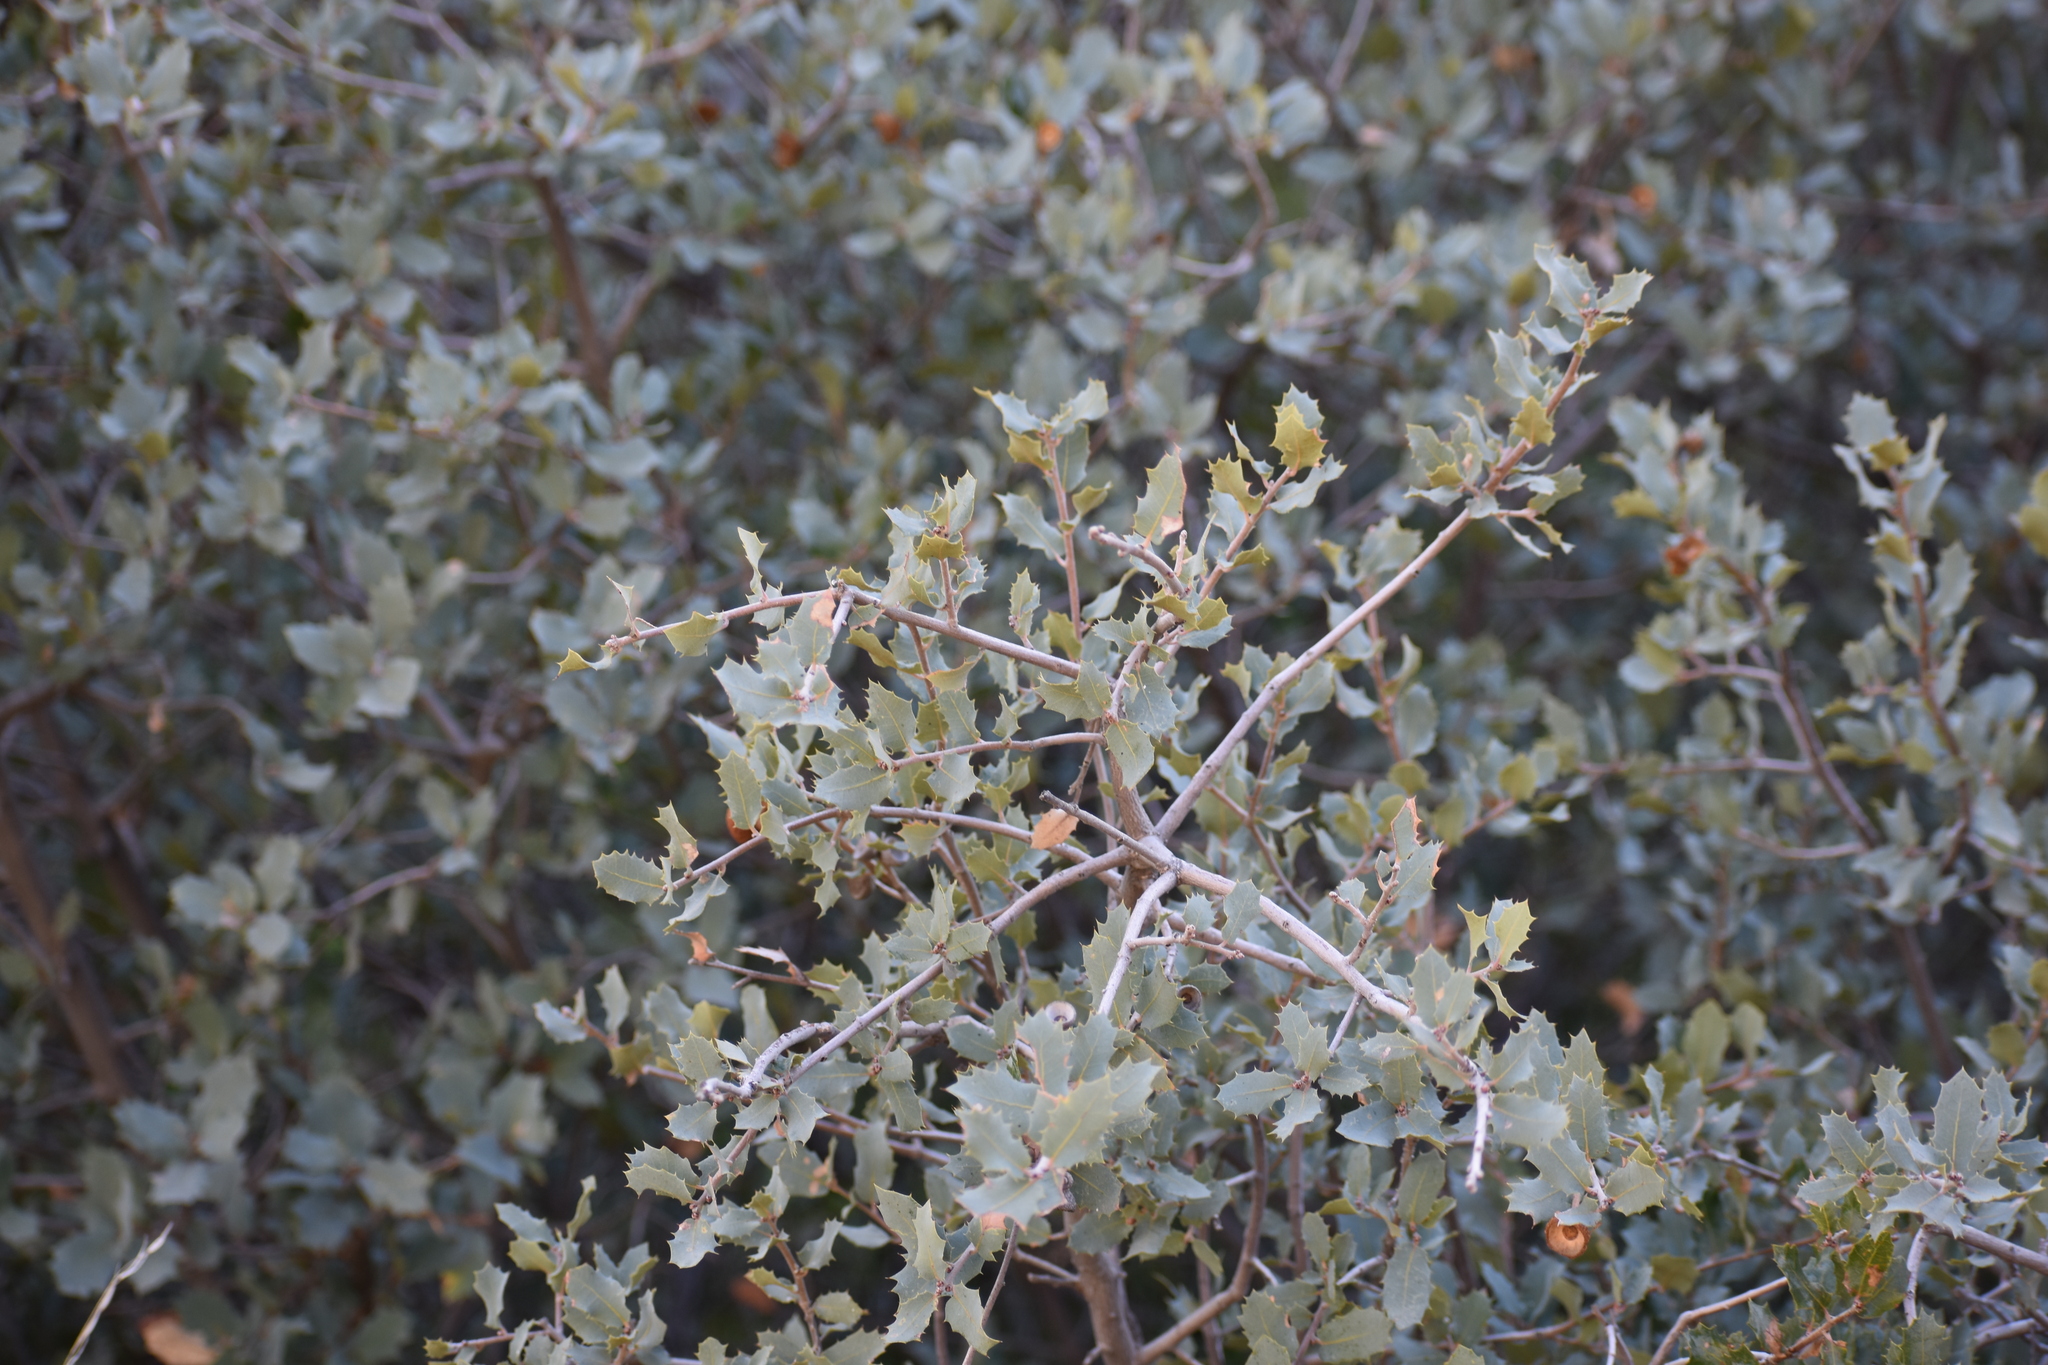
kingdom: Plantae
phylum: Tracheophyta
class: Magnoliopsida
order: Fagales
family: Fagaceae
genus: Quercus
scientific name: Quercus turbinella
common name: Sonoran scrub oak
